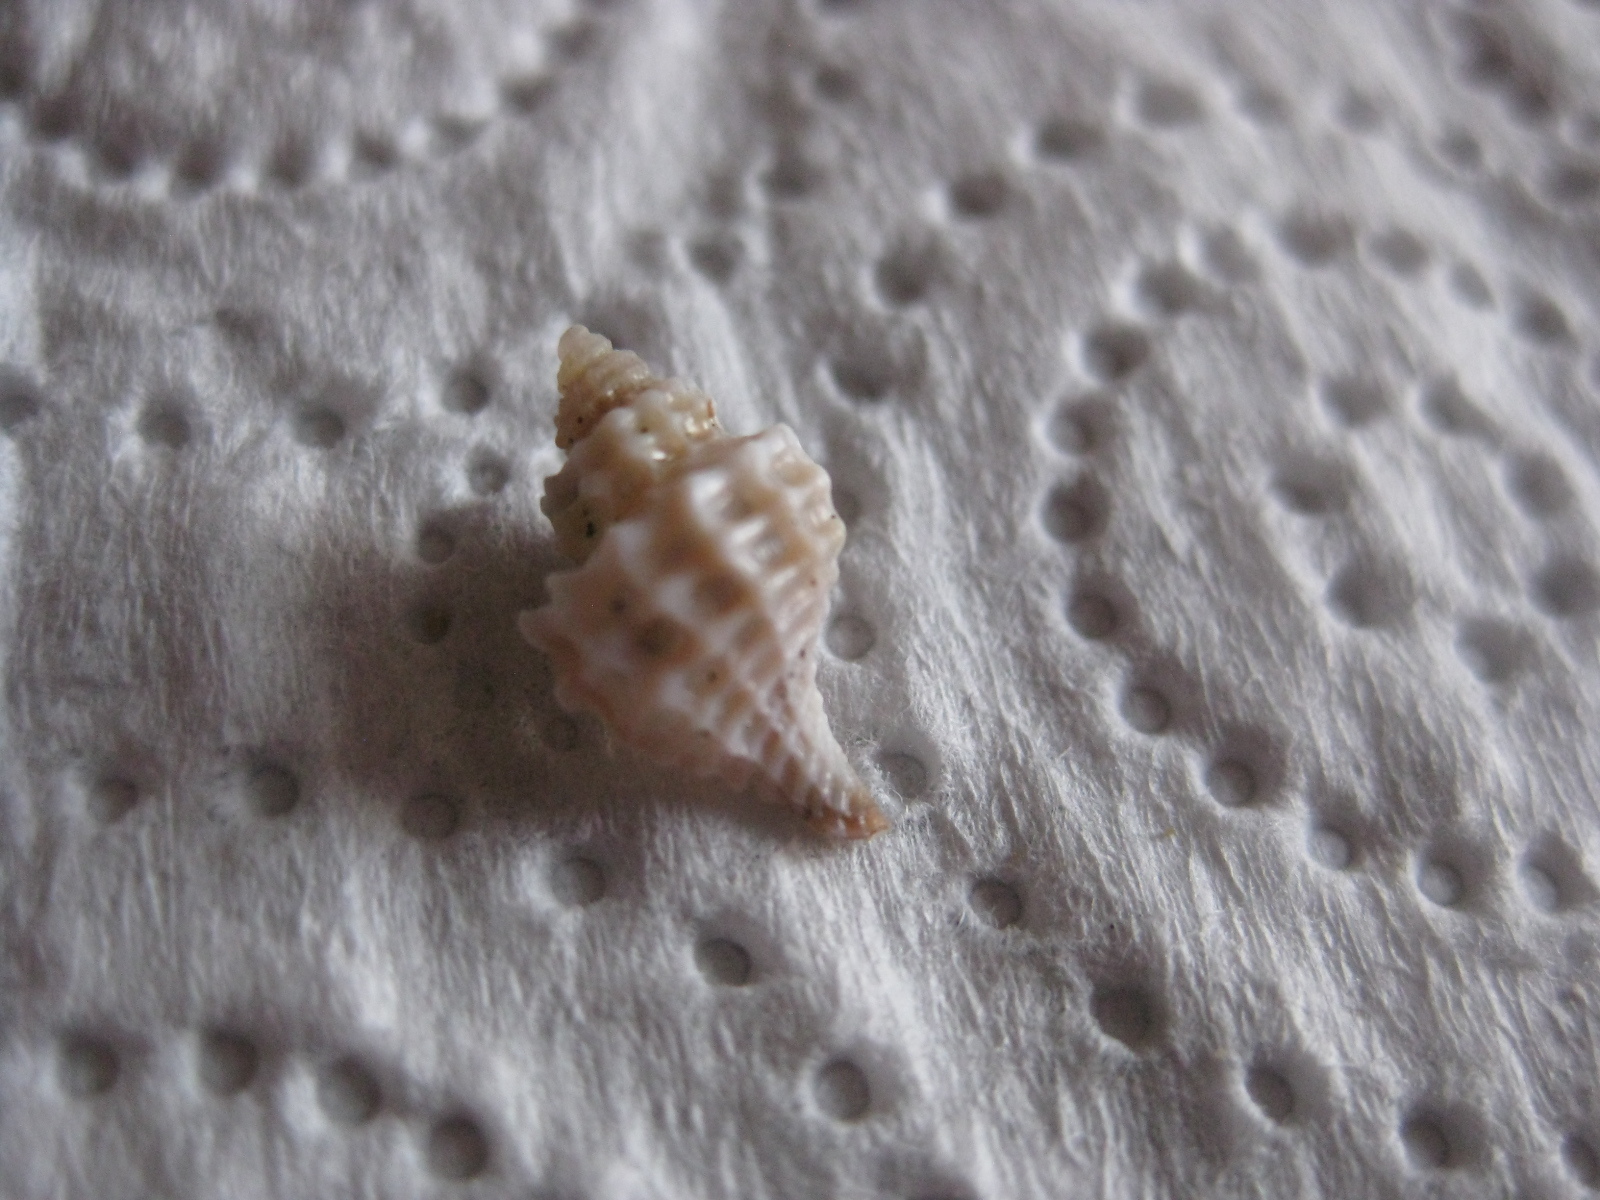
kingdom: Animalia
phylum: Mollusca
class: Gastropoda
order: Neogastropoda
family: Muricidae
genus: Zeatrophon
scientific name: Zeatrophon ambiguus
